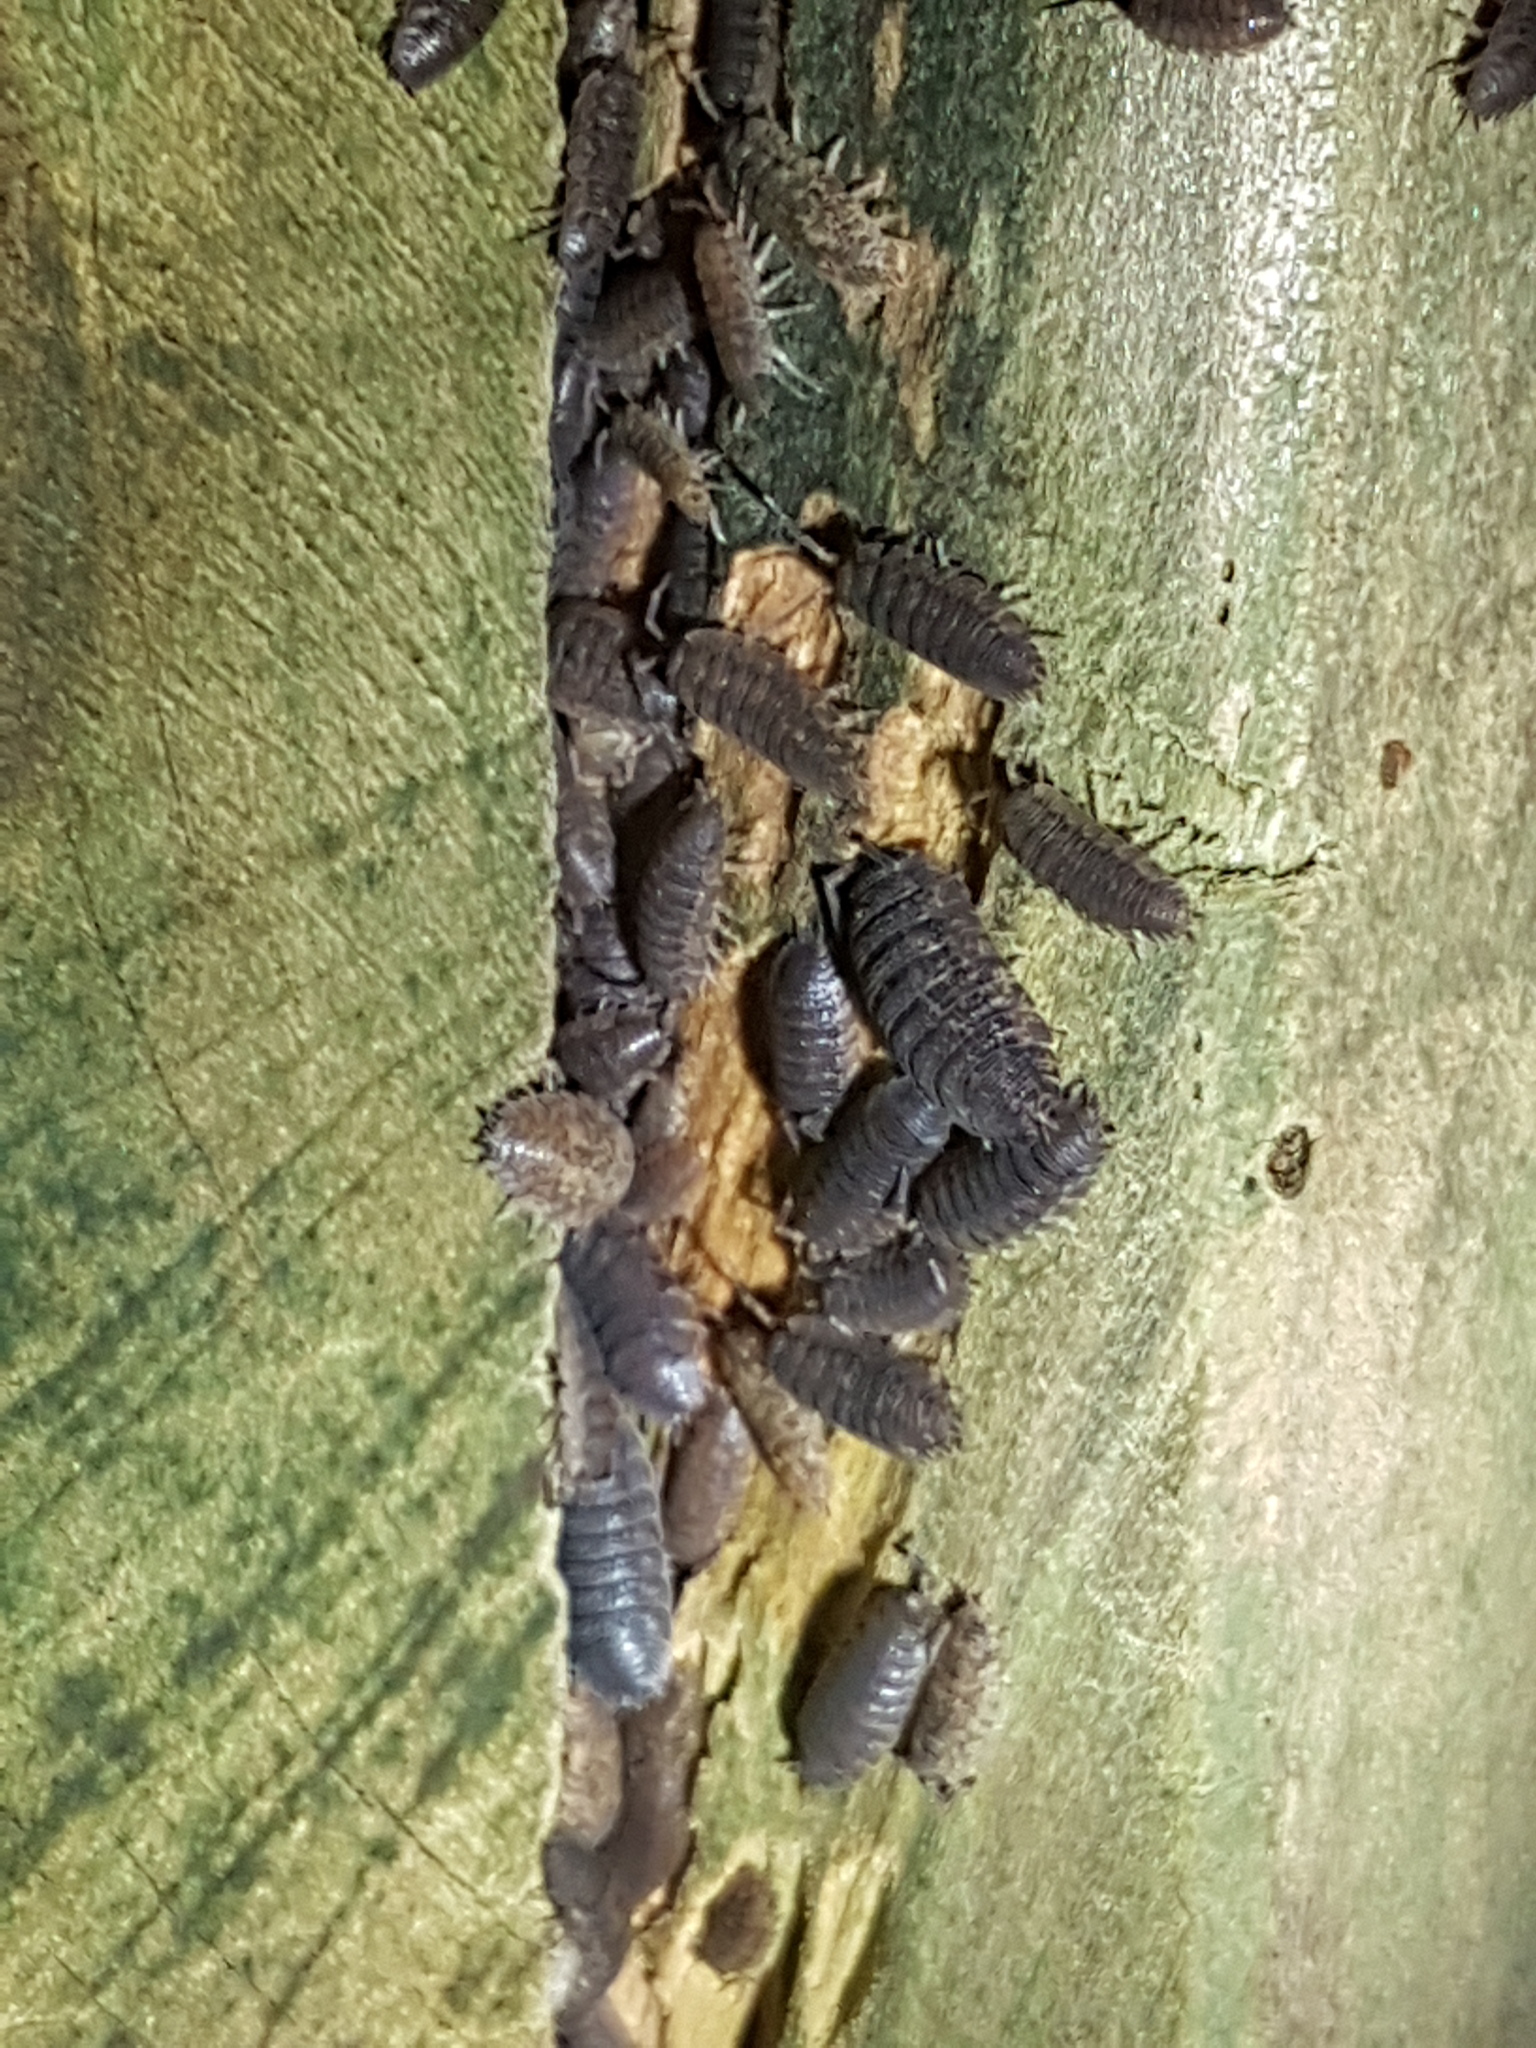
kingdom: Animalia
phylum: Arthropoda
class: Malacostraca
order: Isopoda
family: Porcellionidae
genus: Porcellio
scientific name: Porcellio scaber
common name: Common rough woodlouse
